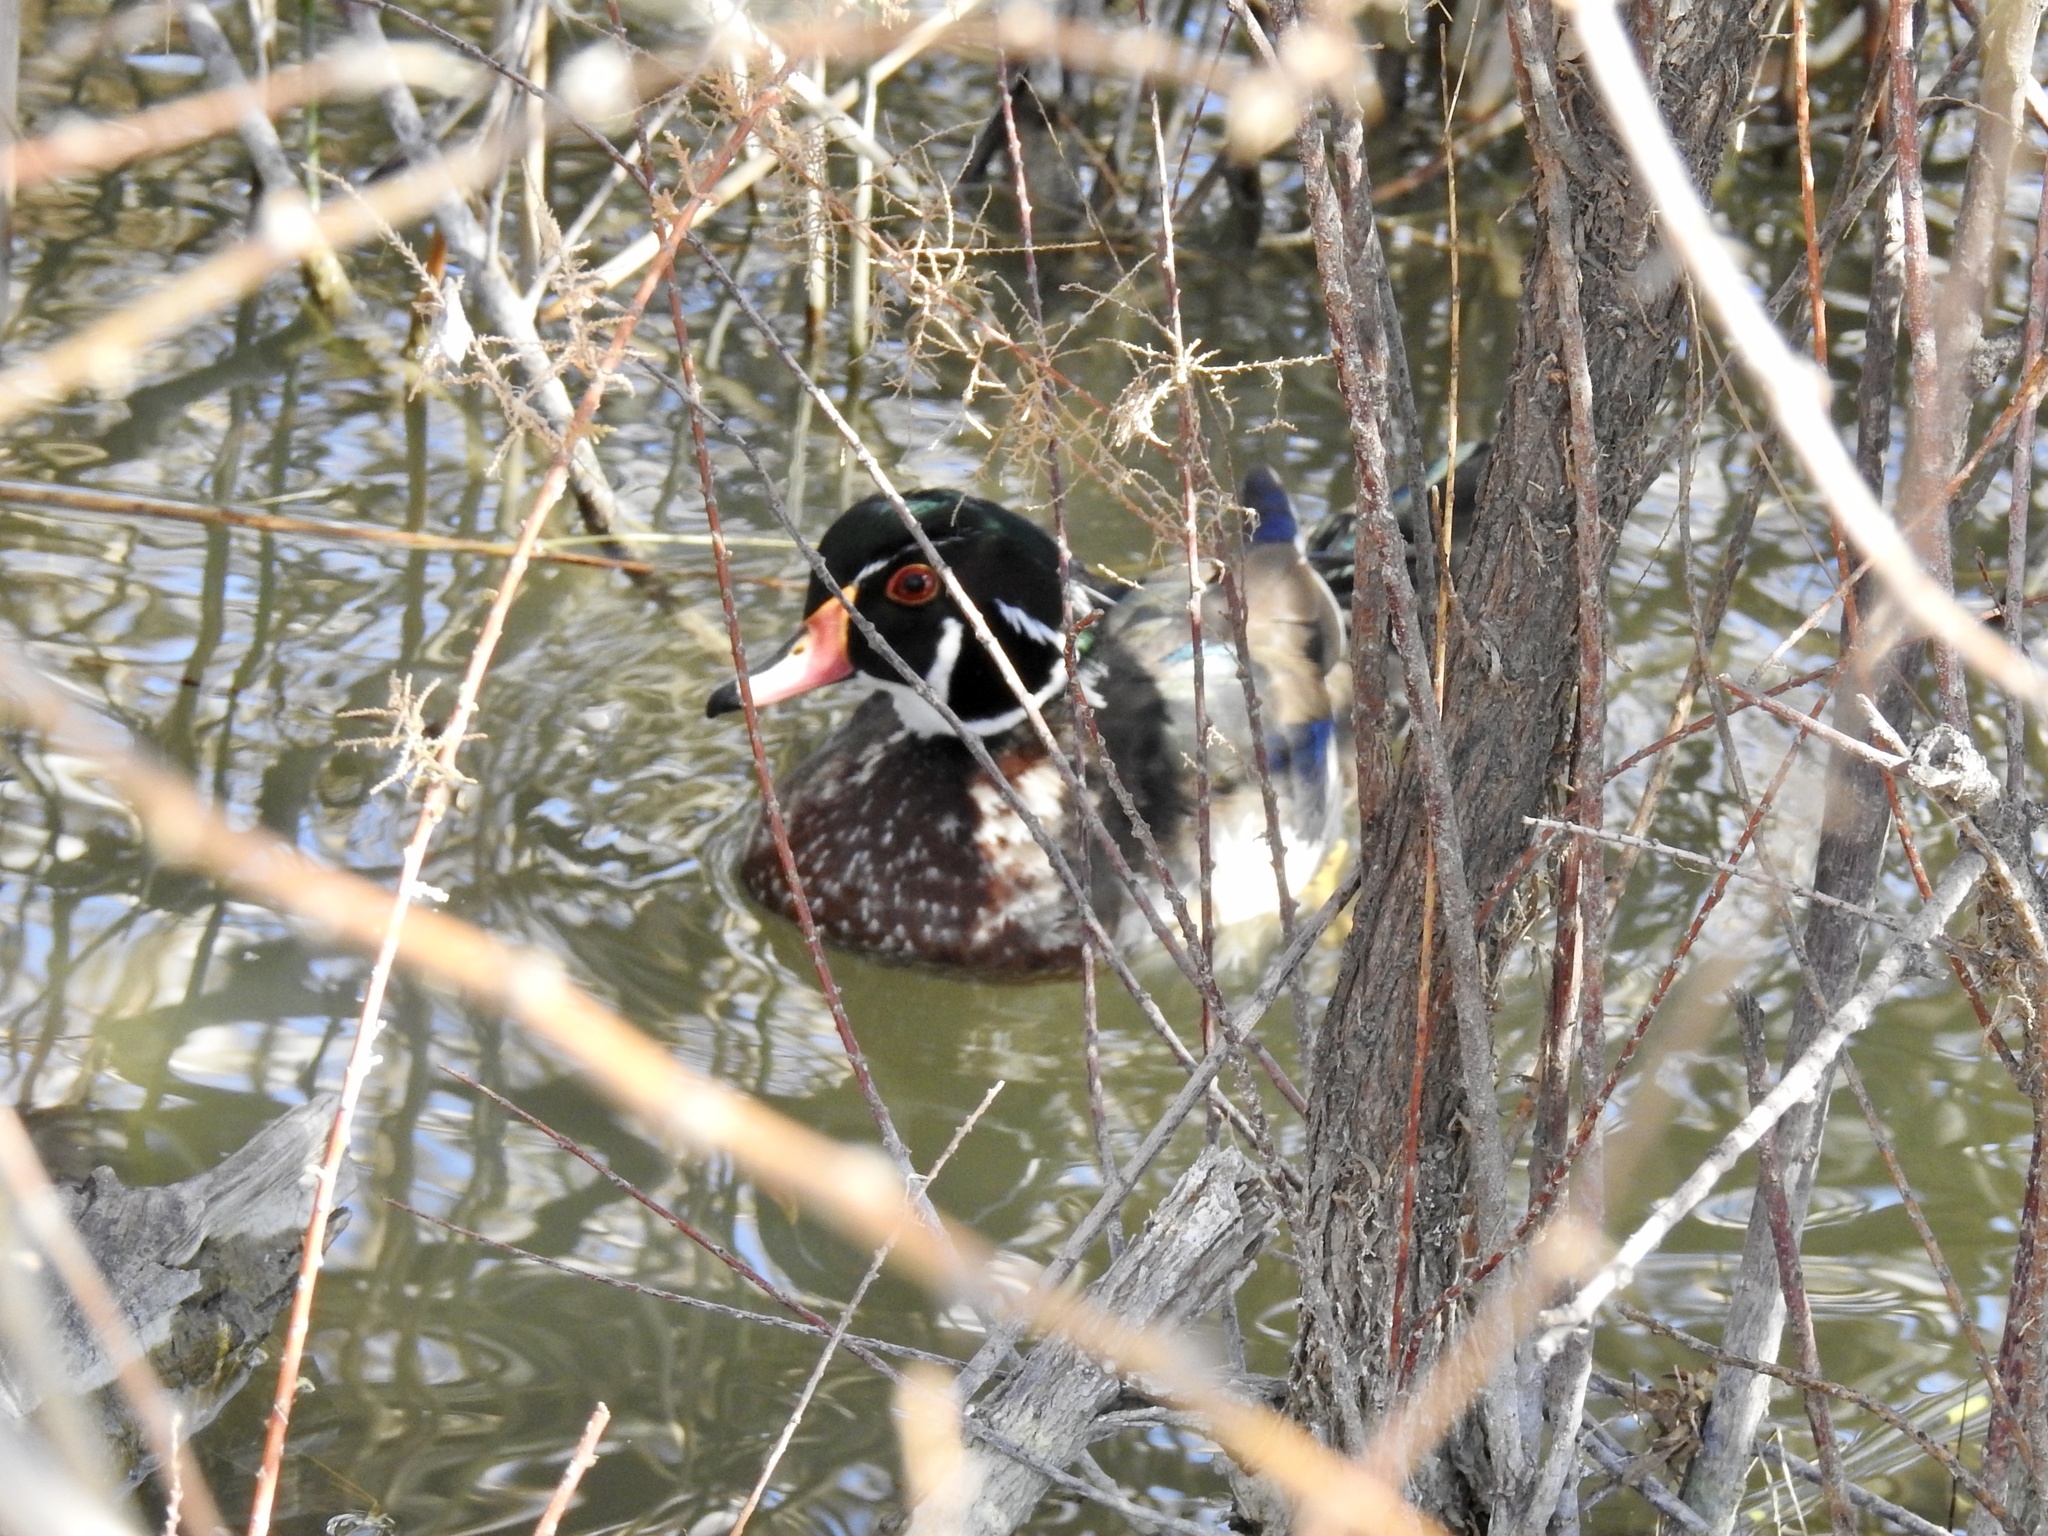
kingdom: Animalia
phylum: Chordata
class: Aves
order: Anseriformes
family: Anatidae
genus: Aix
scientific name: Aix sponsa
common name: Wood duck
